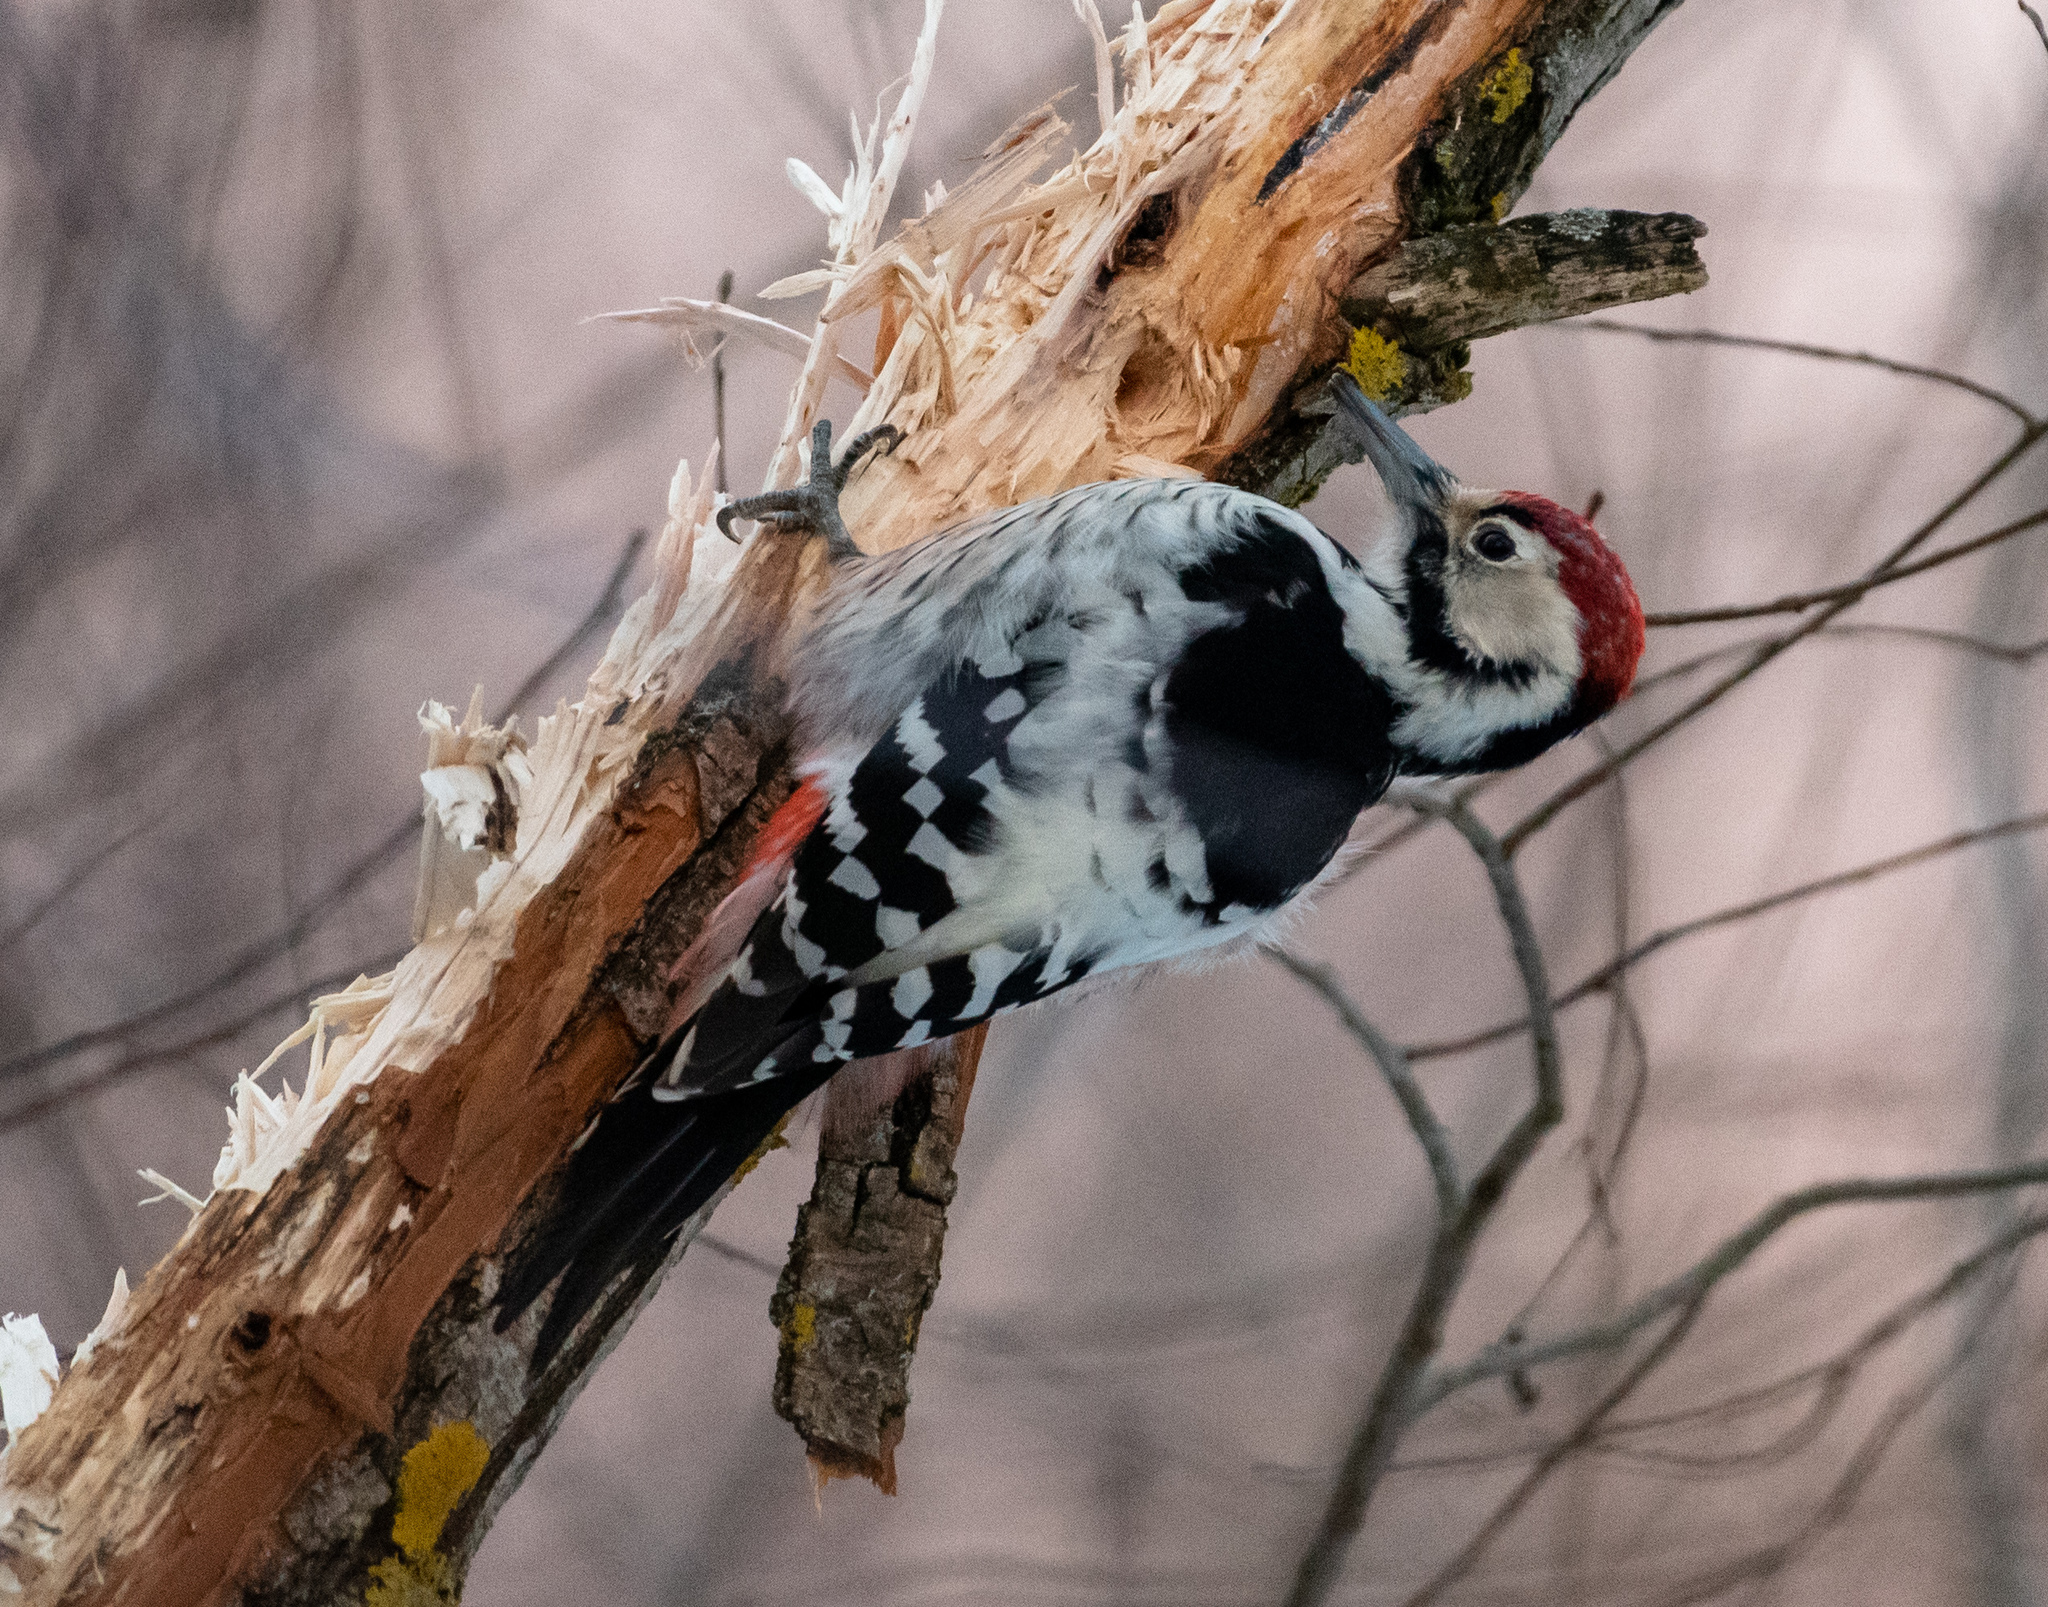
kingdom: Animalia
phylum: Chordata
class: Aves
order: Piciformes
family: Picidae
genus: Dendrocopos
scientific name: Dendrocopos leucotos
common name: White-backed woodpecker
